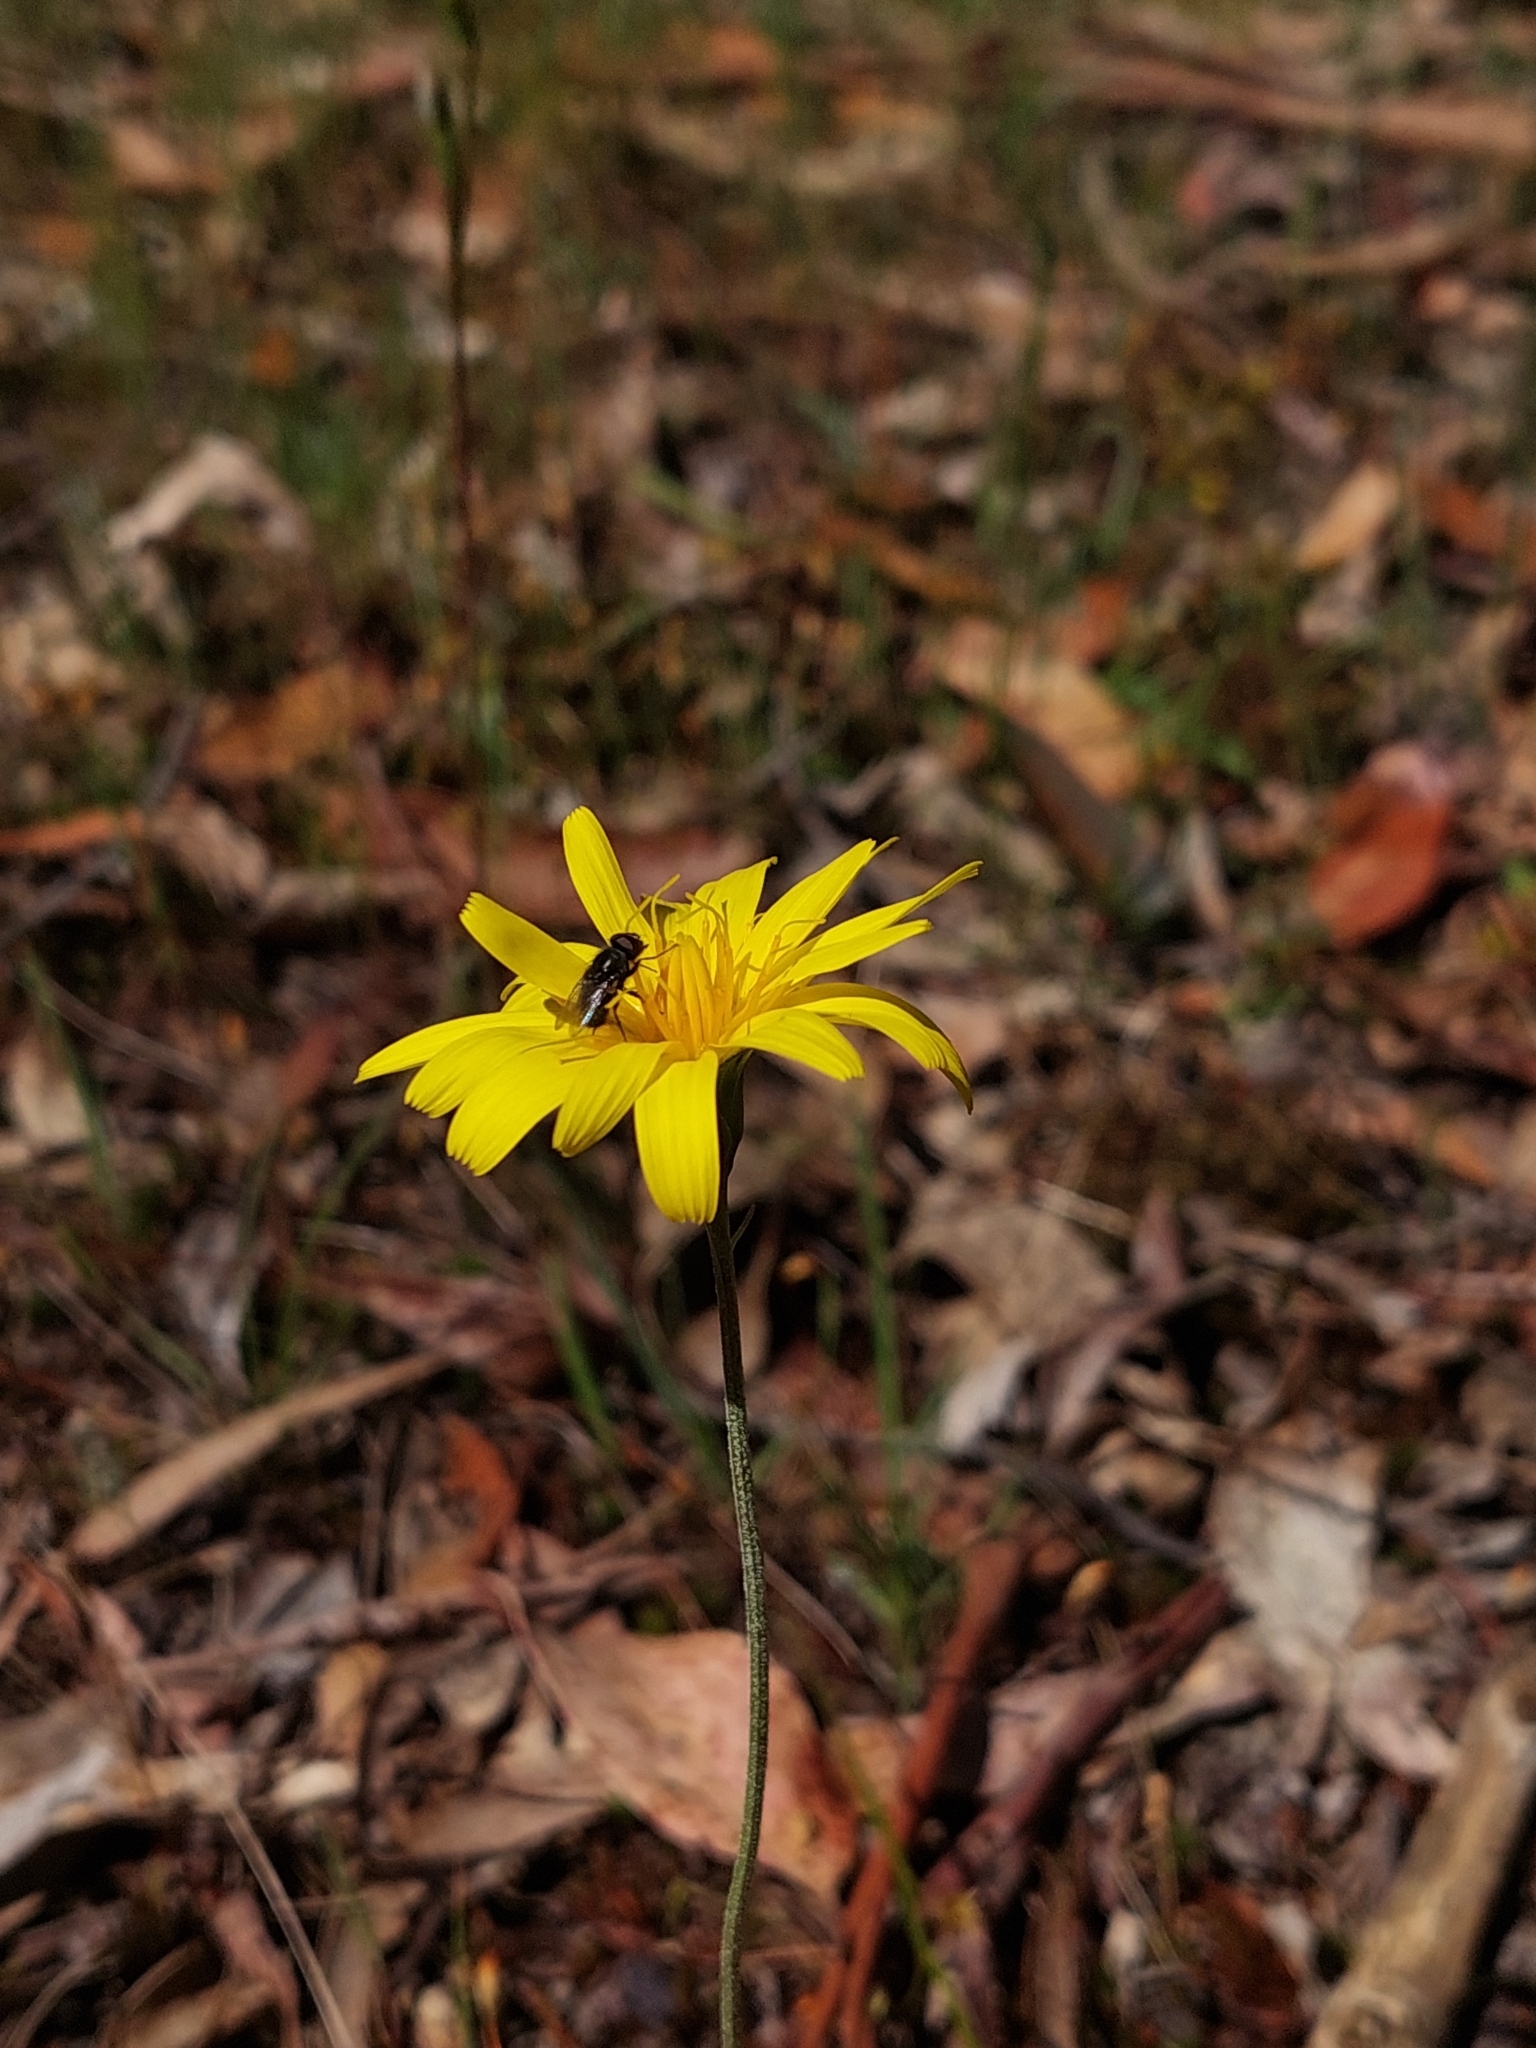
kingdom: Plantae
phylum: Tracheophyta
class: Magnoliopsida
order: Asterales
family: Asteraceae
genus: Microseris
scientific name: Microseris lanceolata
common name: Yam daisy
